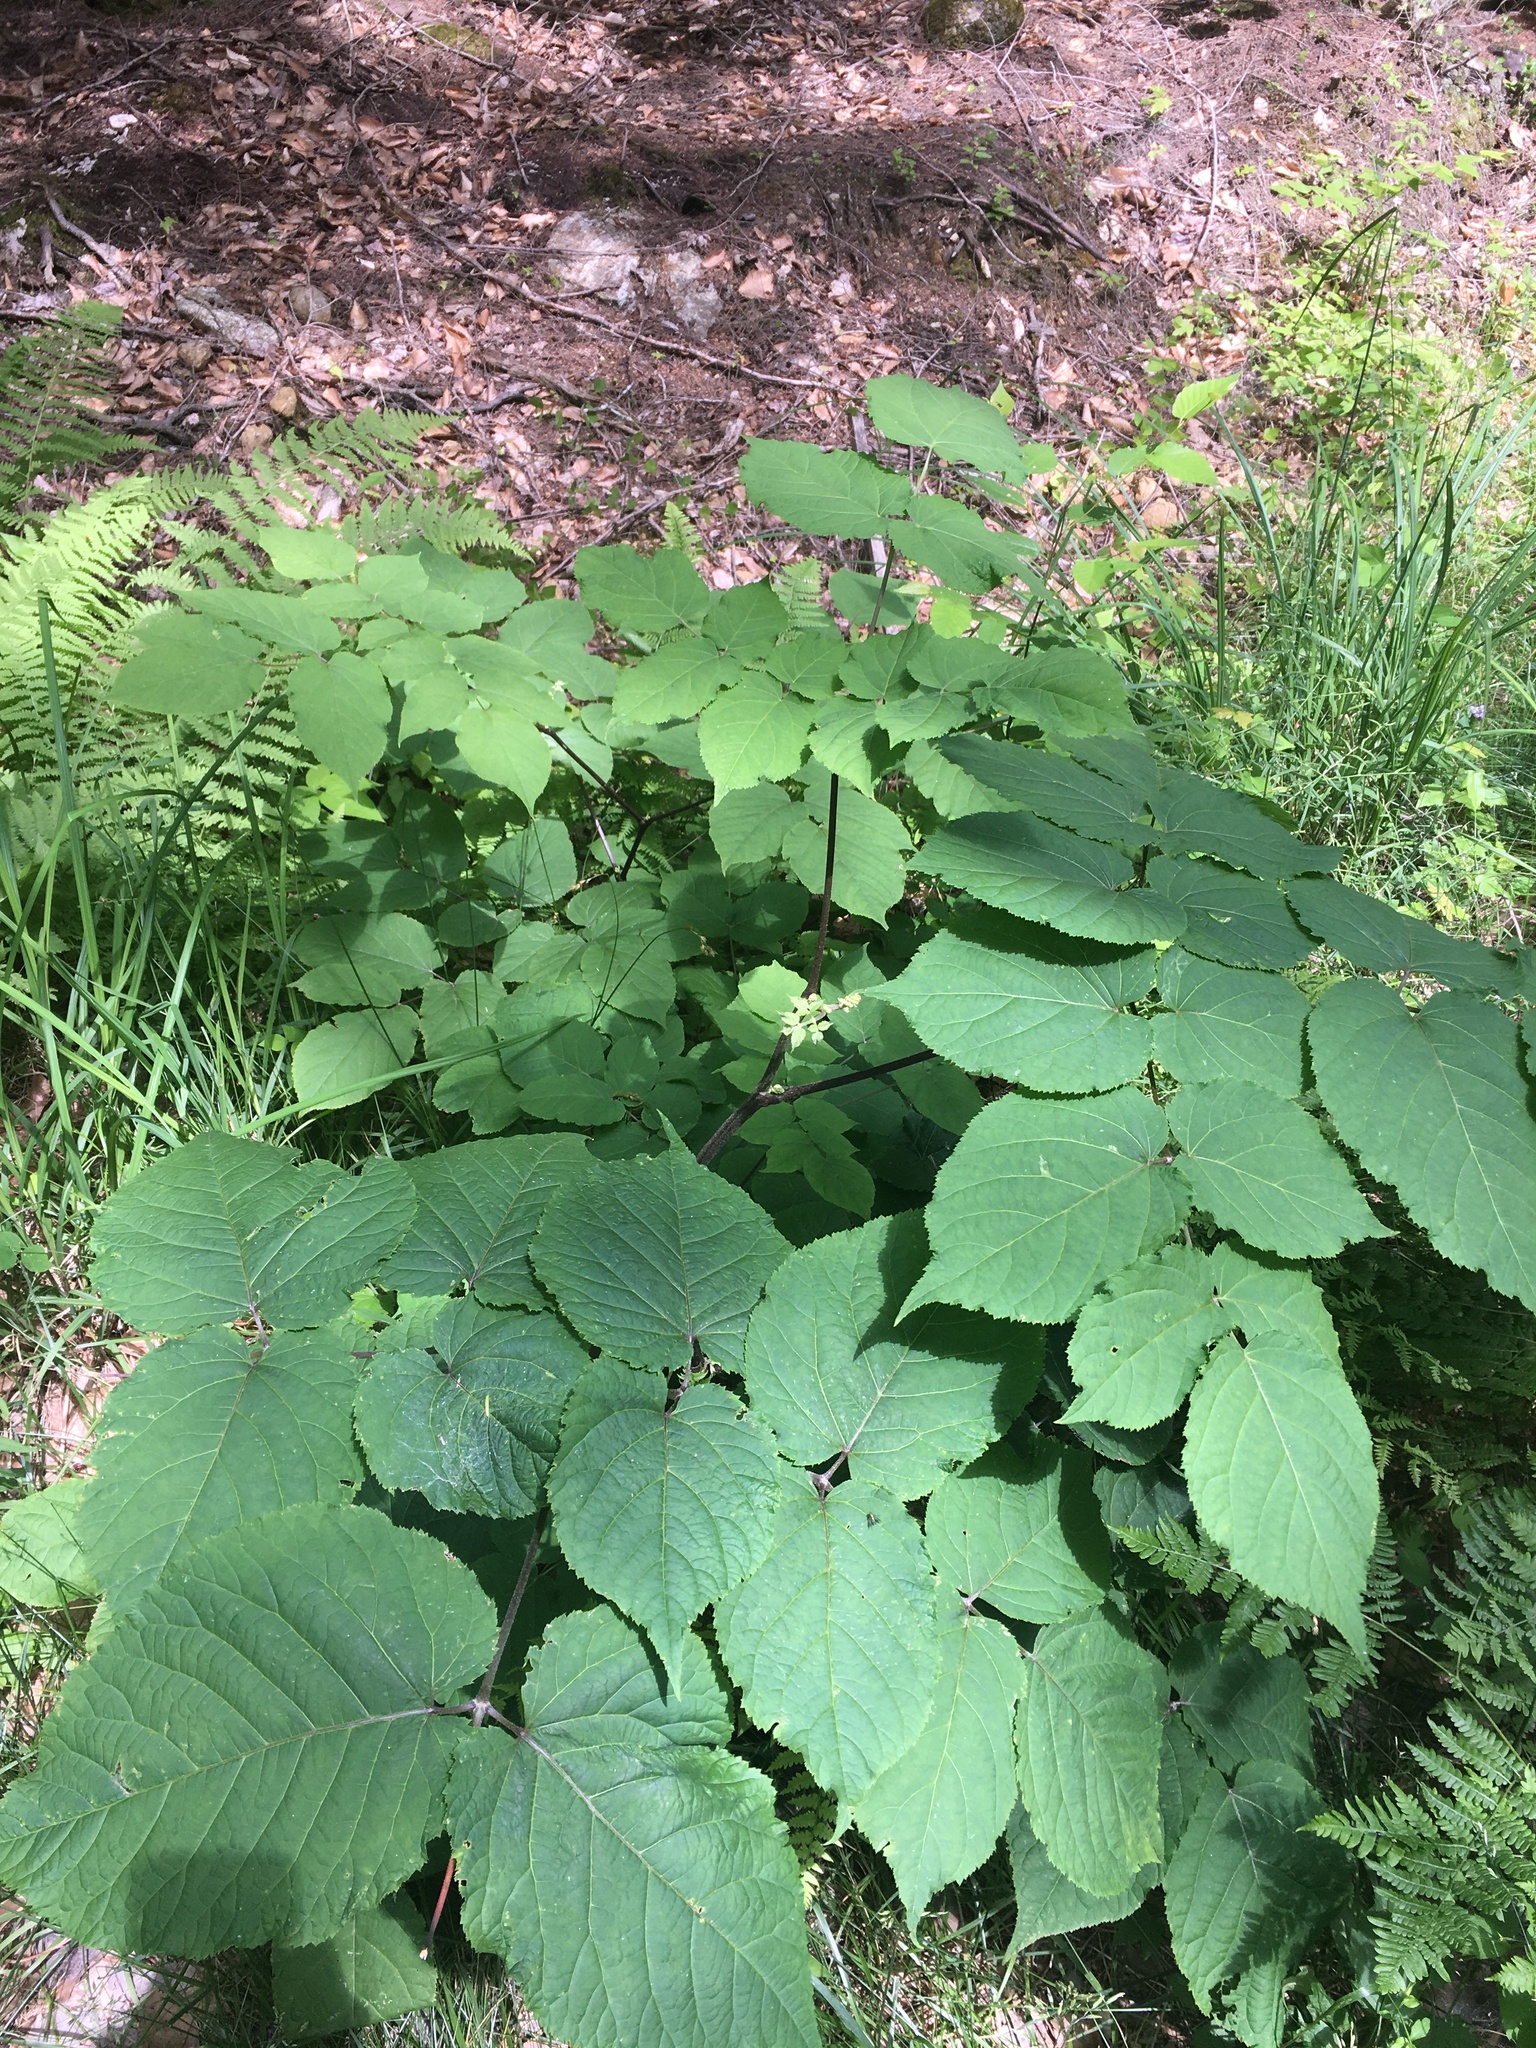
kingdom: Plantae
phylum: Tracheophyta
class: Magnoliopsida
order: Apiales
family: Araliaceae
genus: Aralia
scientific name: Aralia racemosa
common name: American-spikenard
